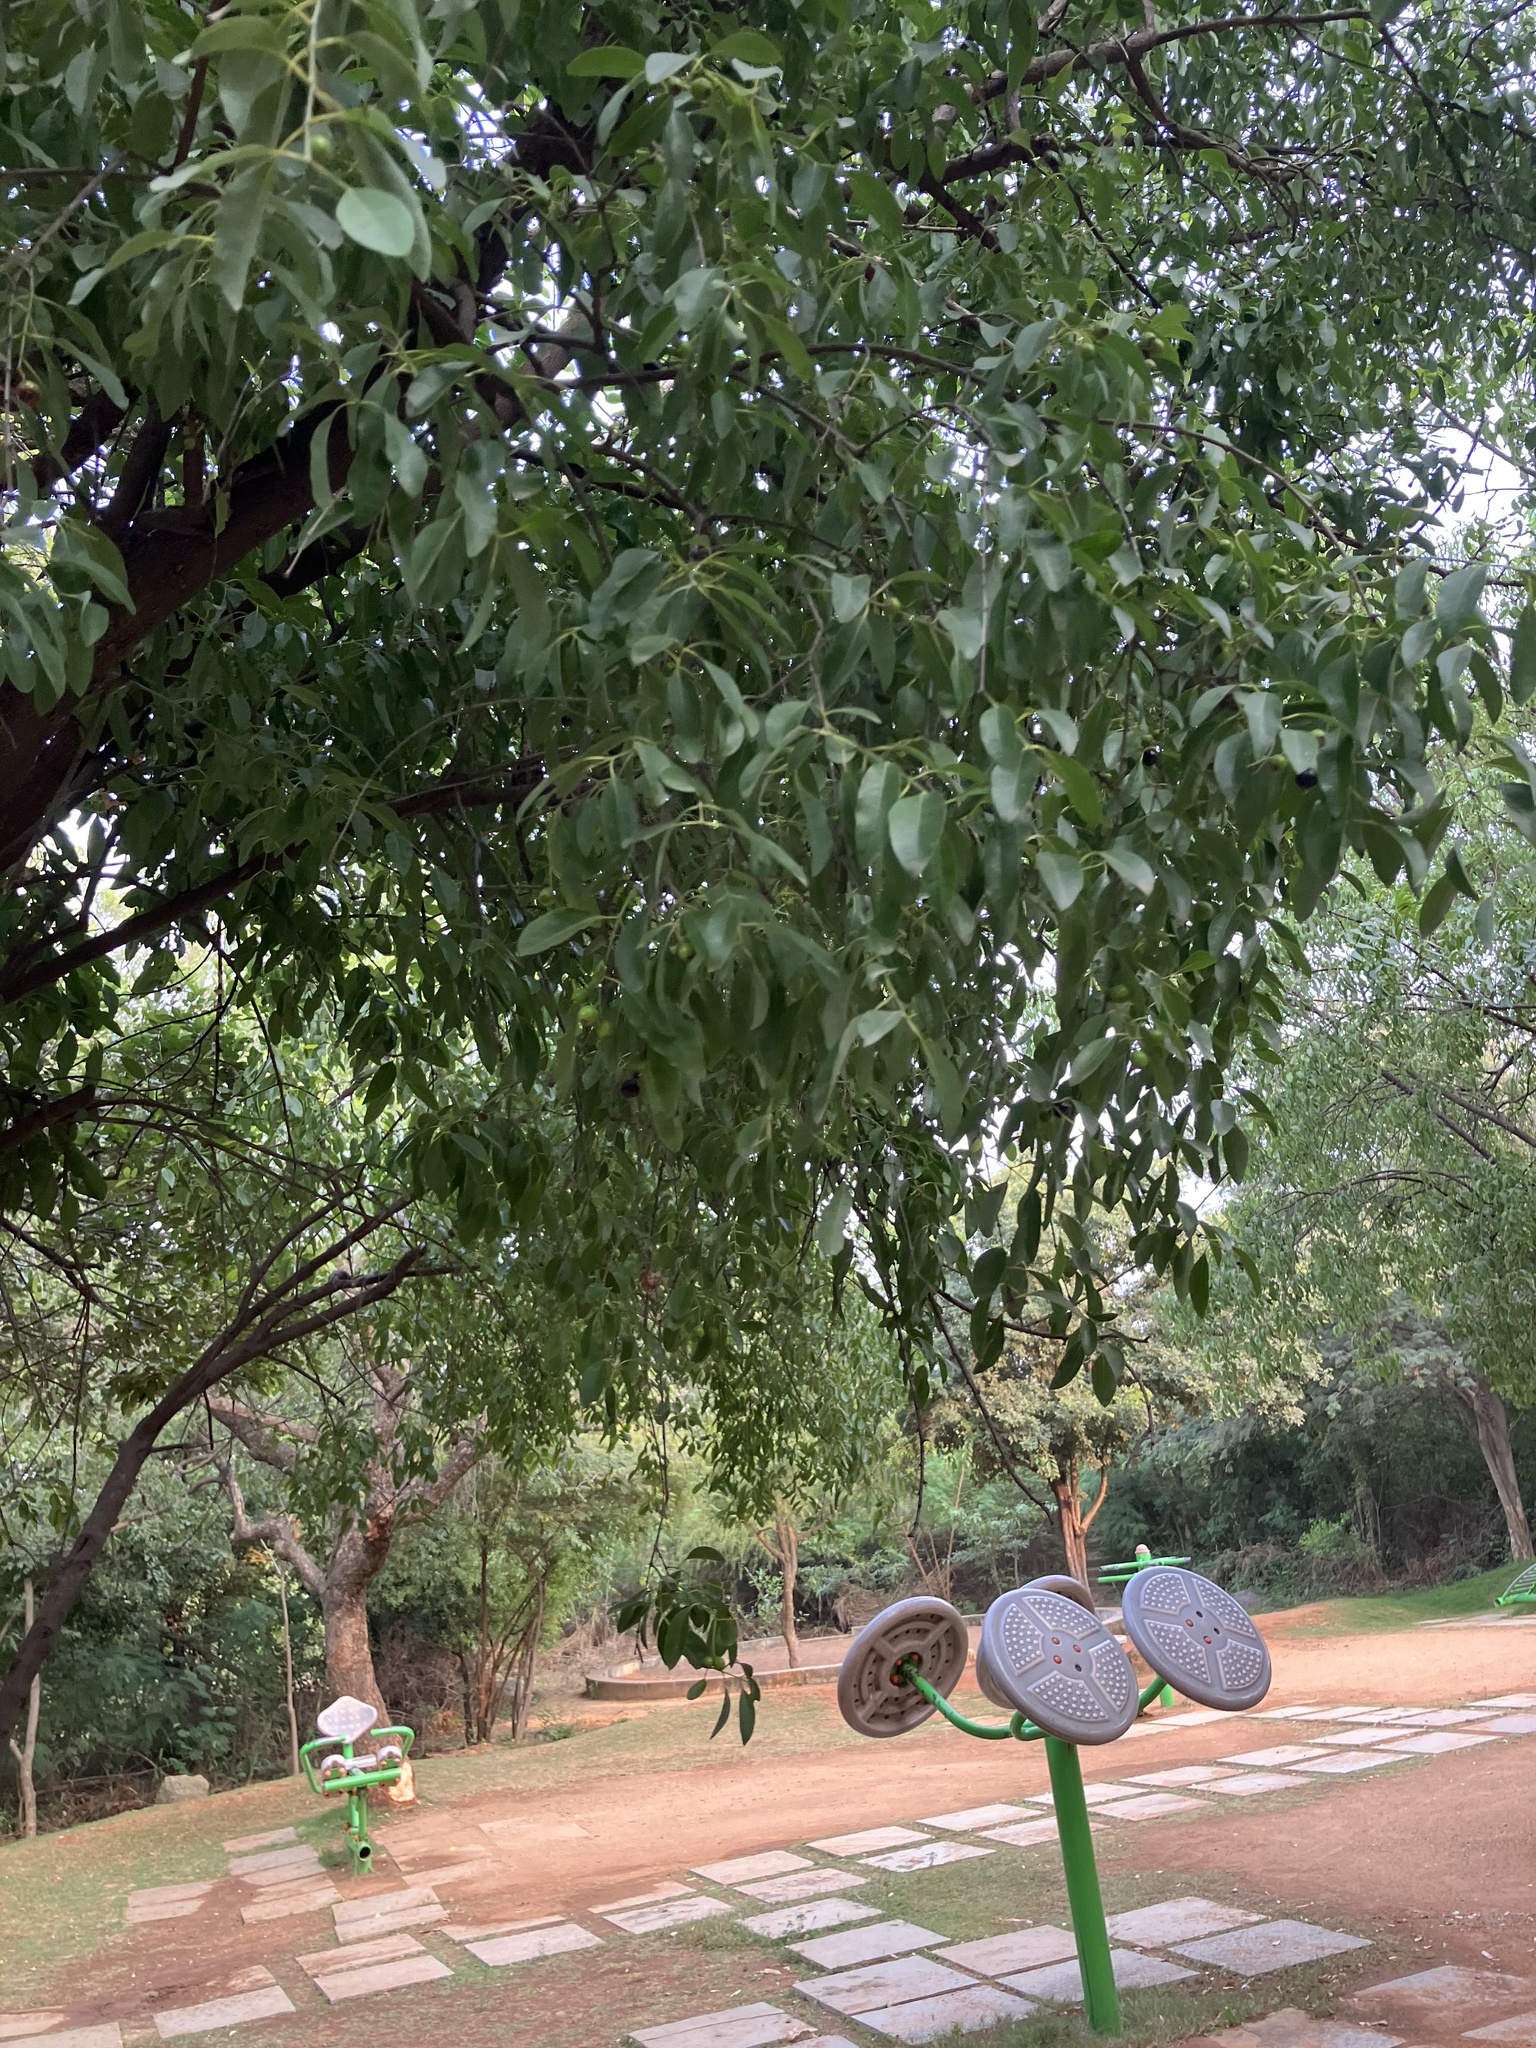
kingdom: Plantae
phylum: Tracheophyta
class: Magnoliopsida
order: Santalales
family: Santalaceae
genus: Santalum
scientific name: Santalum album
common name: Indian sandalwood
